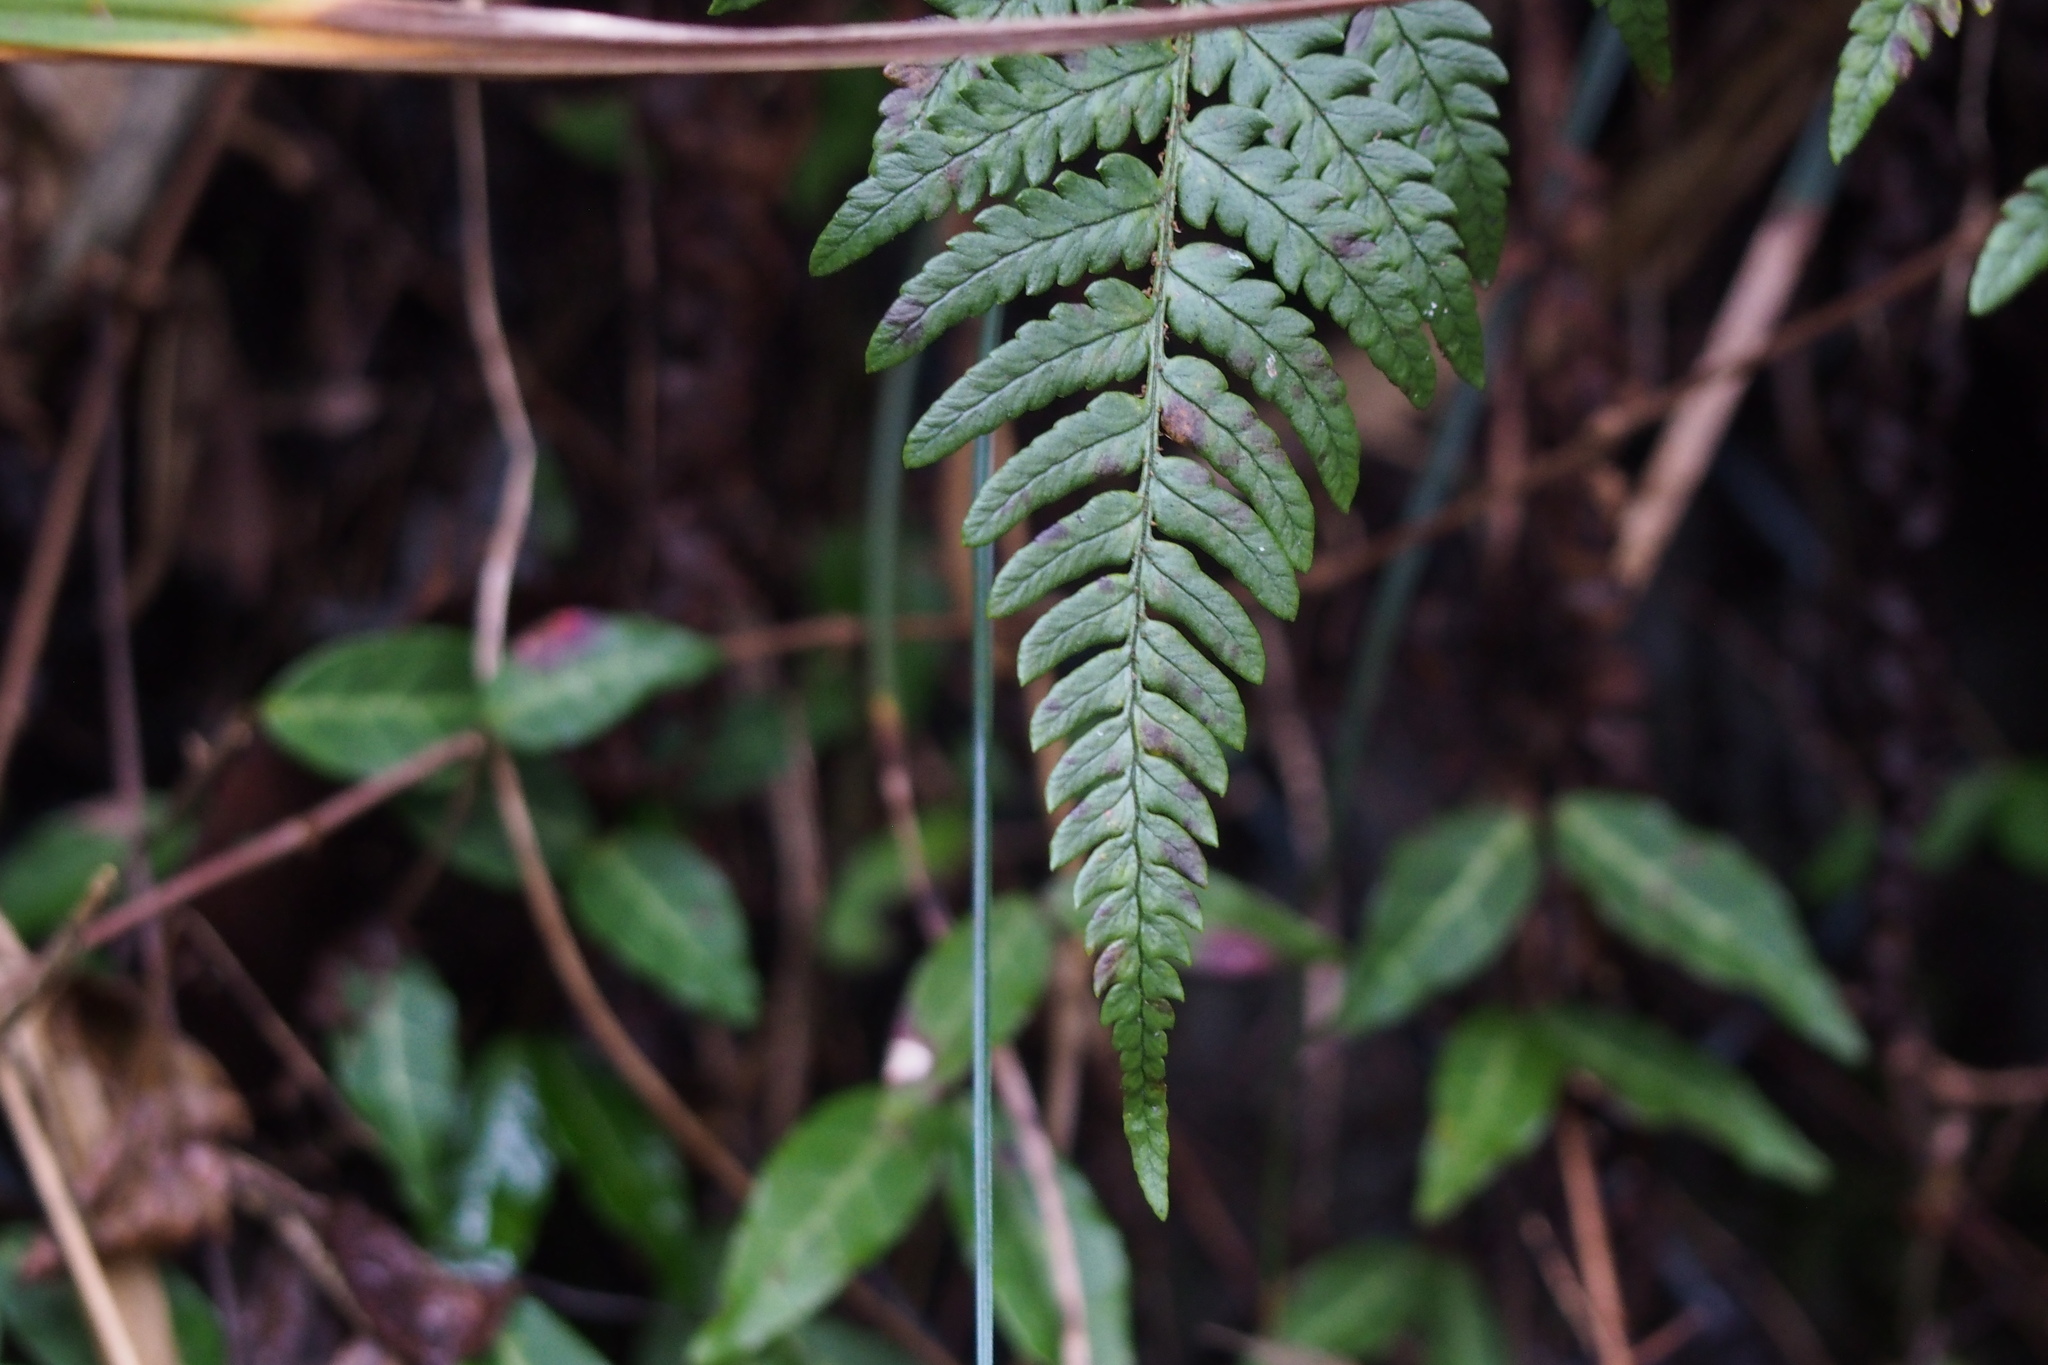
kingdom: Plantae
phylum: Tracheophyta
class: Polypodiopsida
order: Polypodiales
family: Dryopteridaceae
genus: Dryopteris
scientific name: Dryopteris bissetiana
